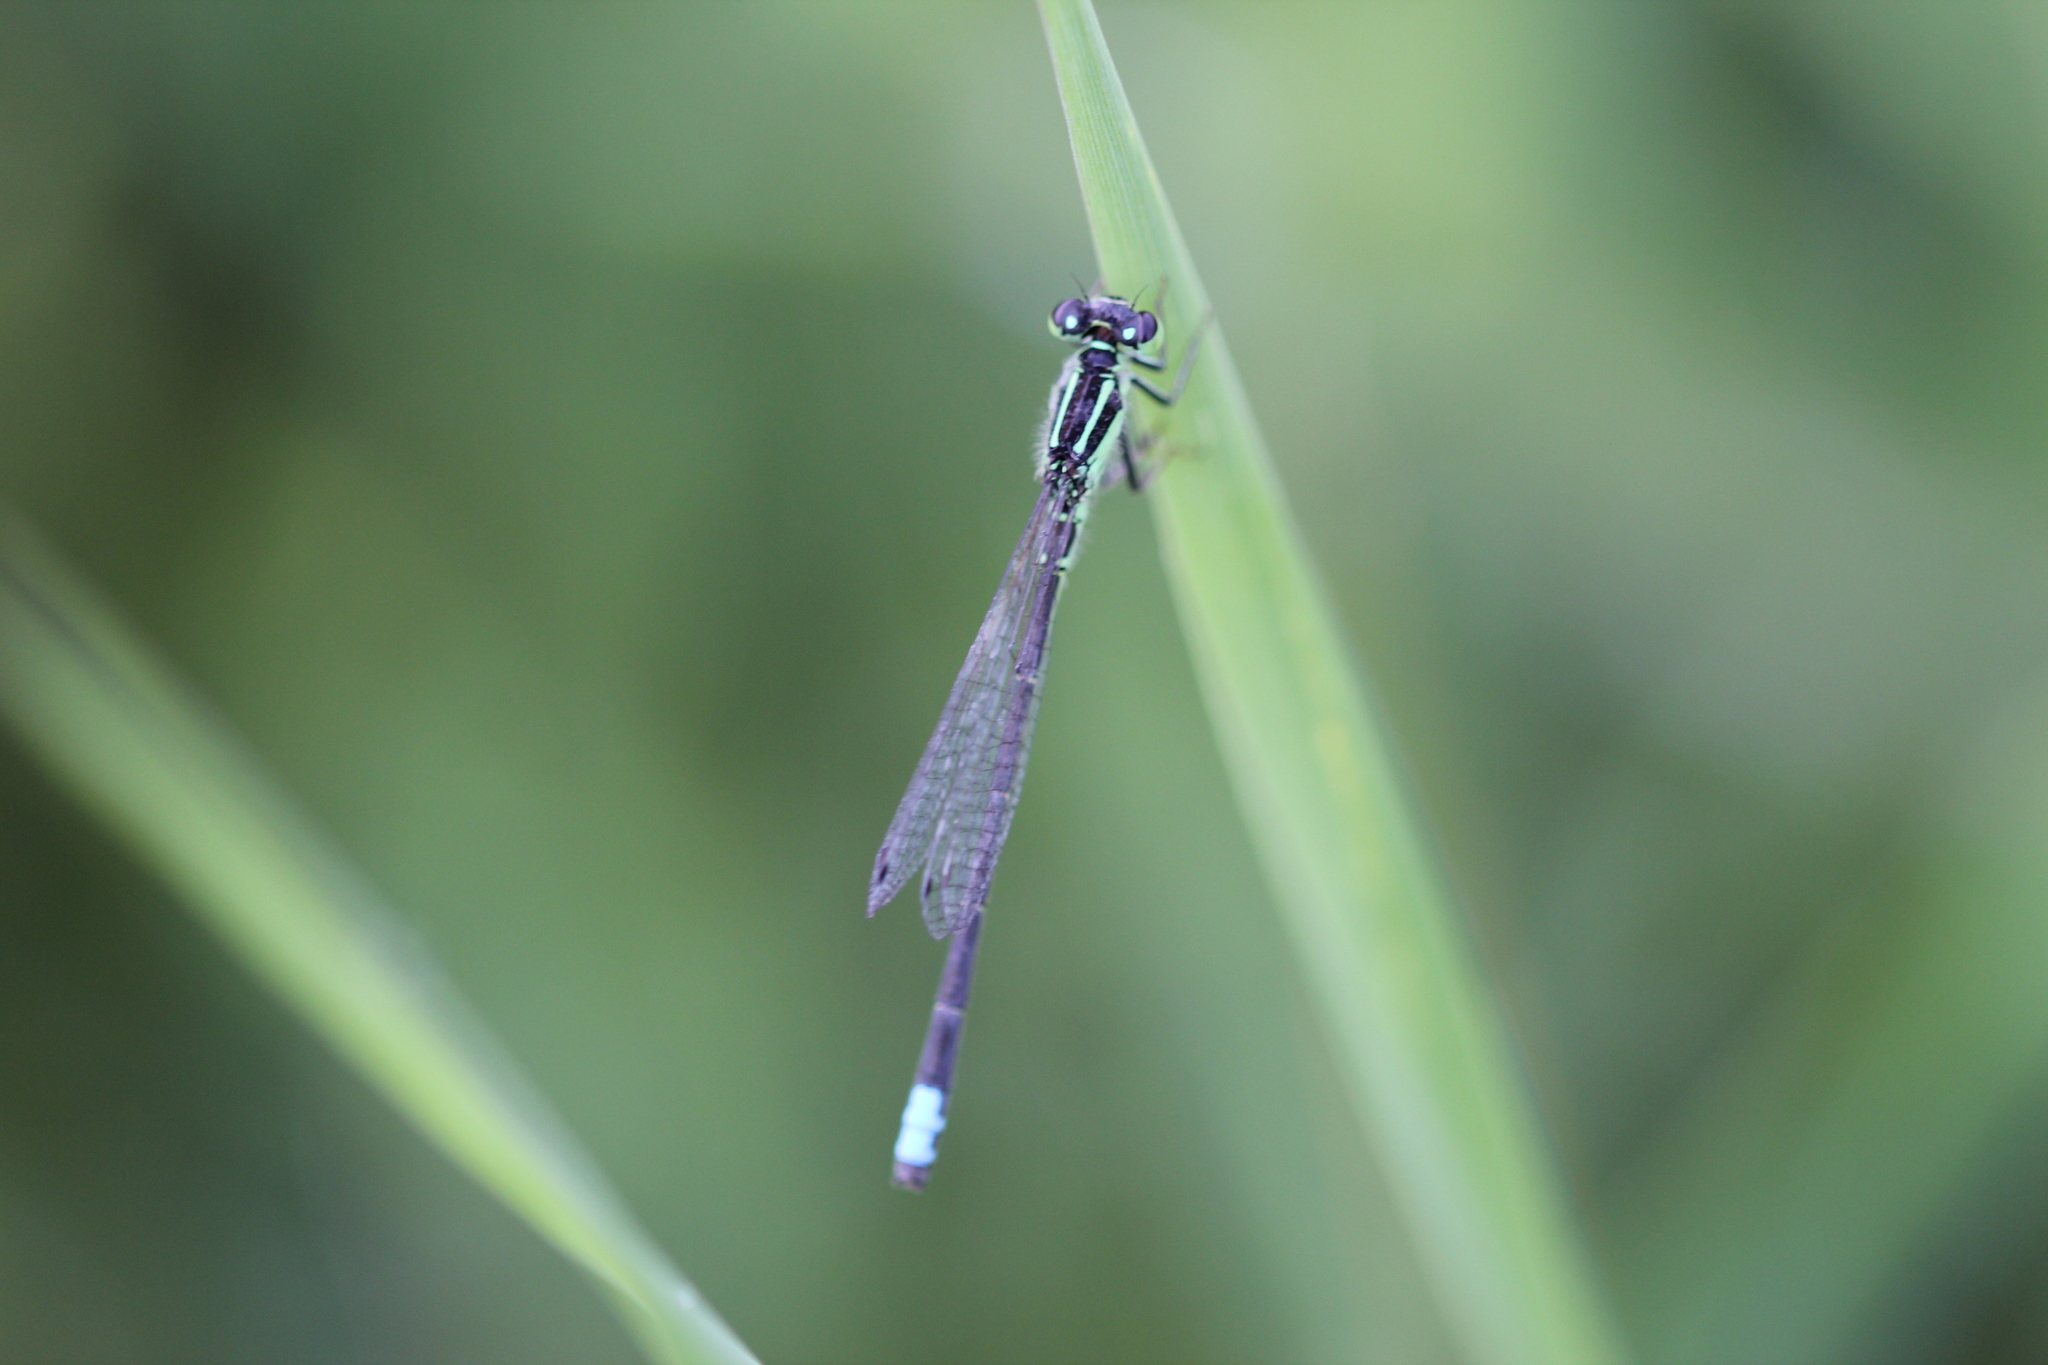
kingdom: Animalia
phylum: Arthropoda
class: Insecta
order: Odonata
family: Coenagrionidae
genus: Ischnura
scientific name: Ischnura verticalis
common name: Eastern forktail
